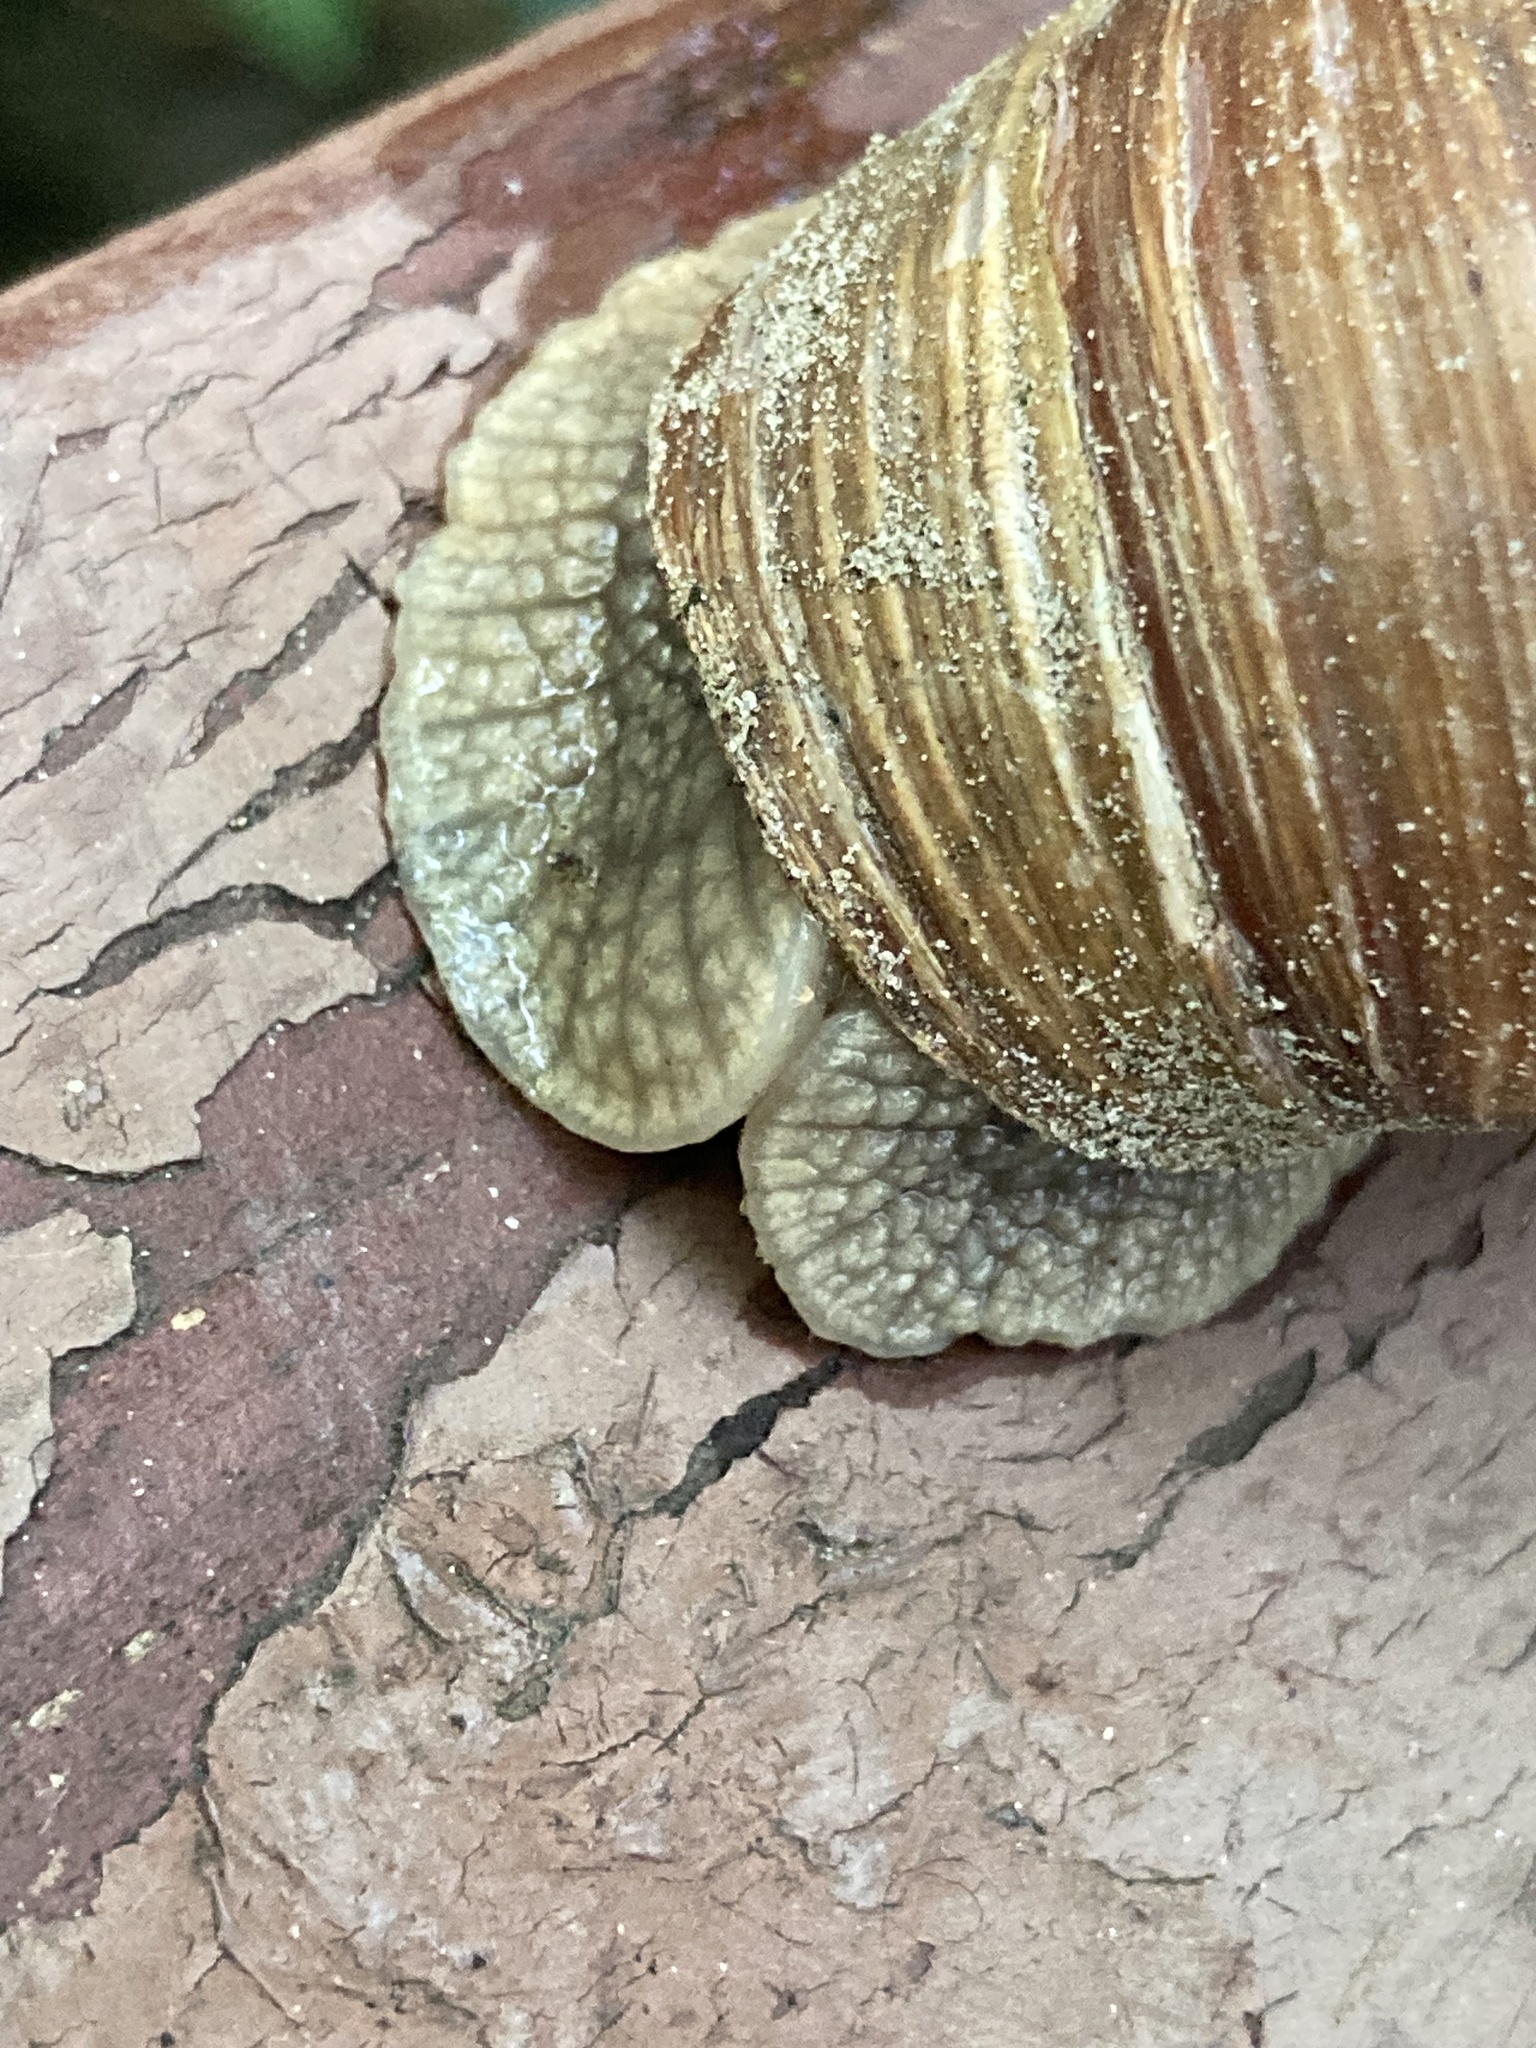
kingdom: Animalia
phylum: Mollusca
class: Gastropoda
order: Stylommatophora
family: Helicidae
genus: Helix
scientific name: Helix pomatia
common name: Roman snail
